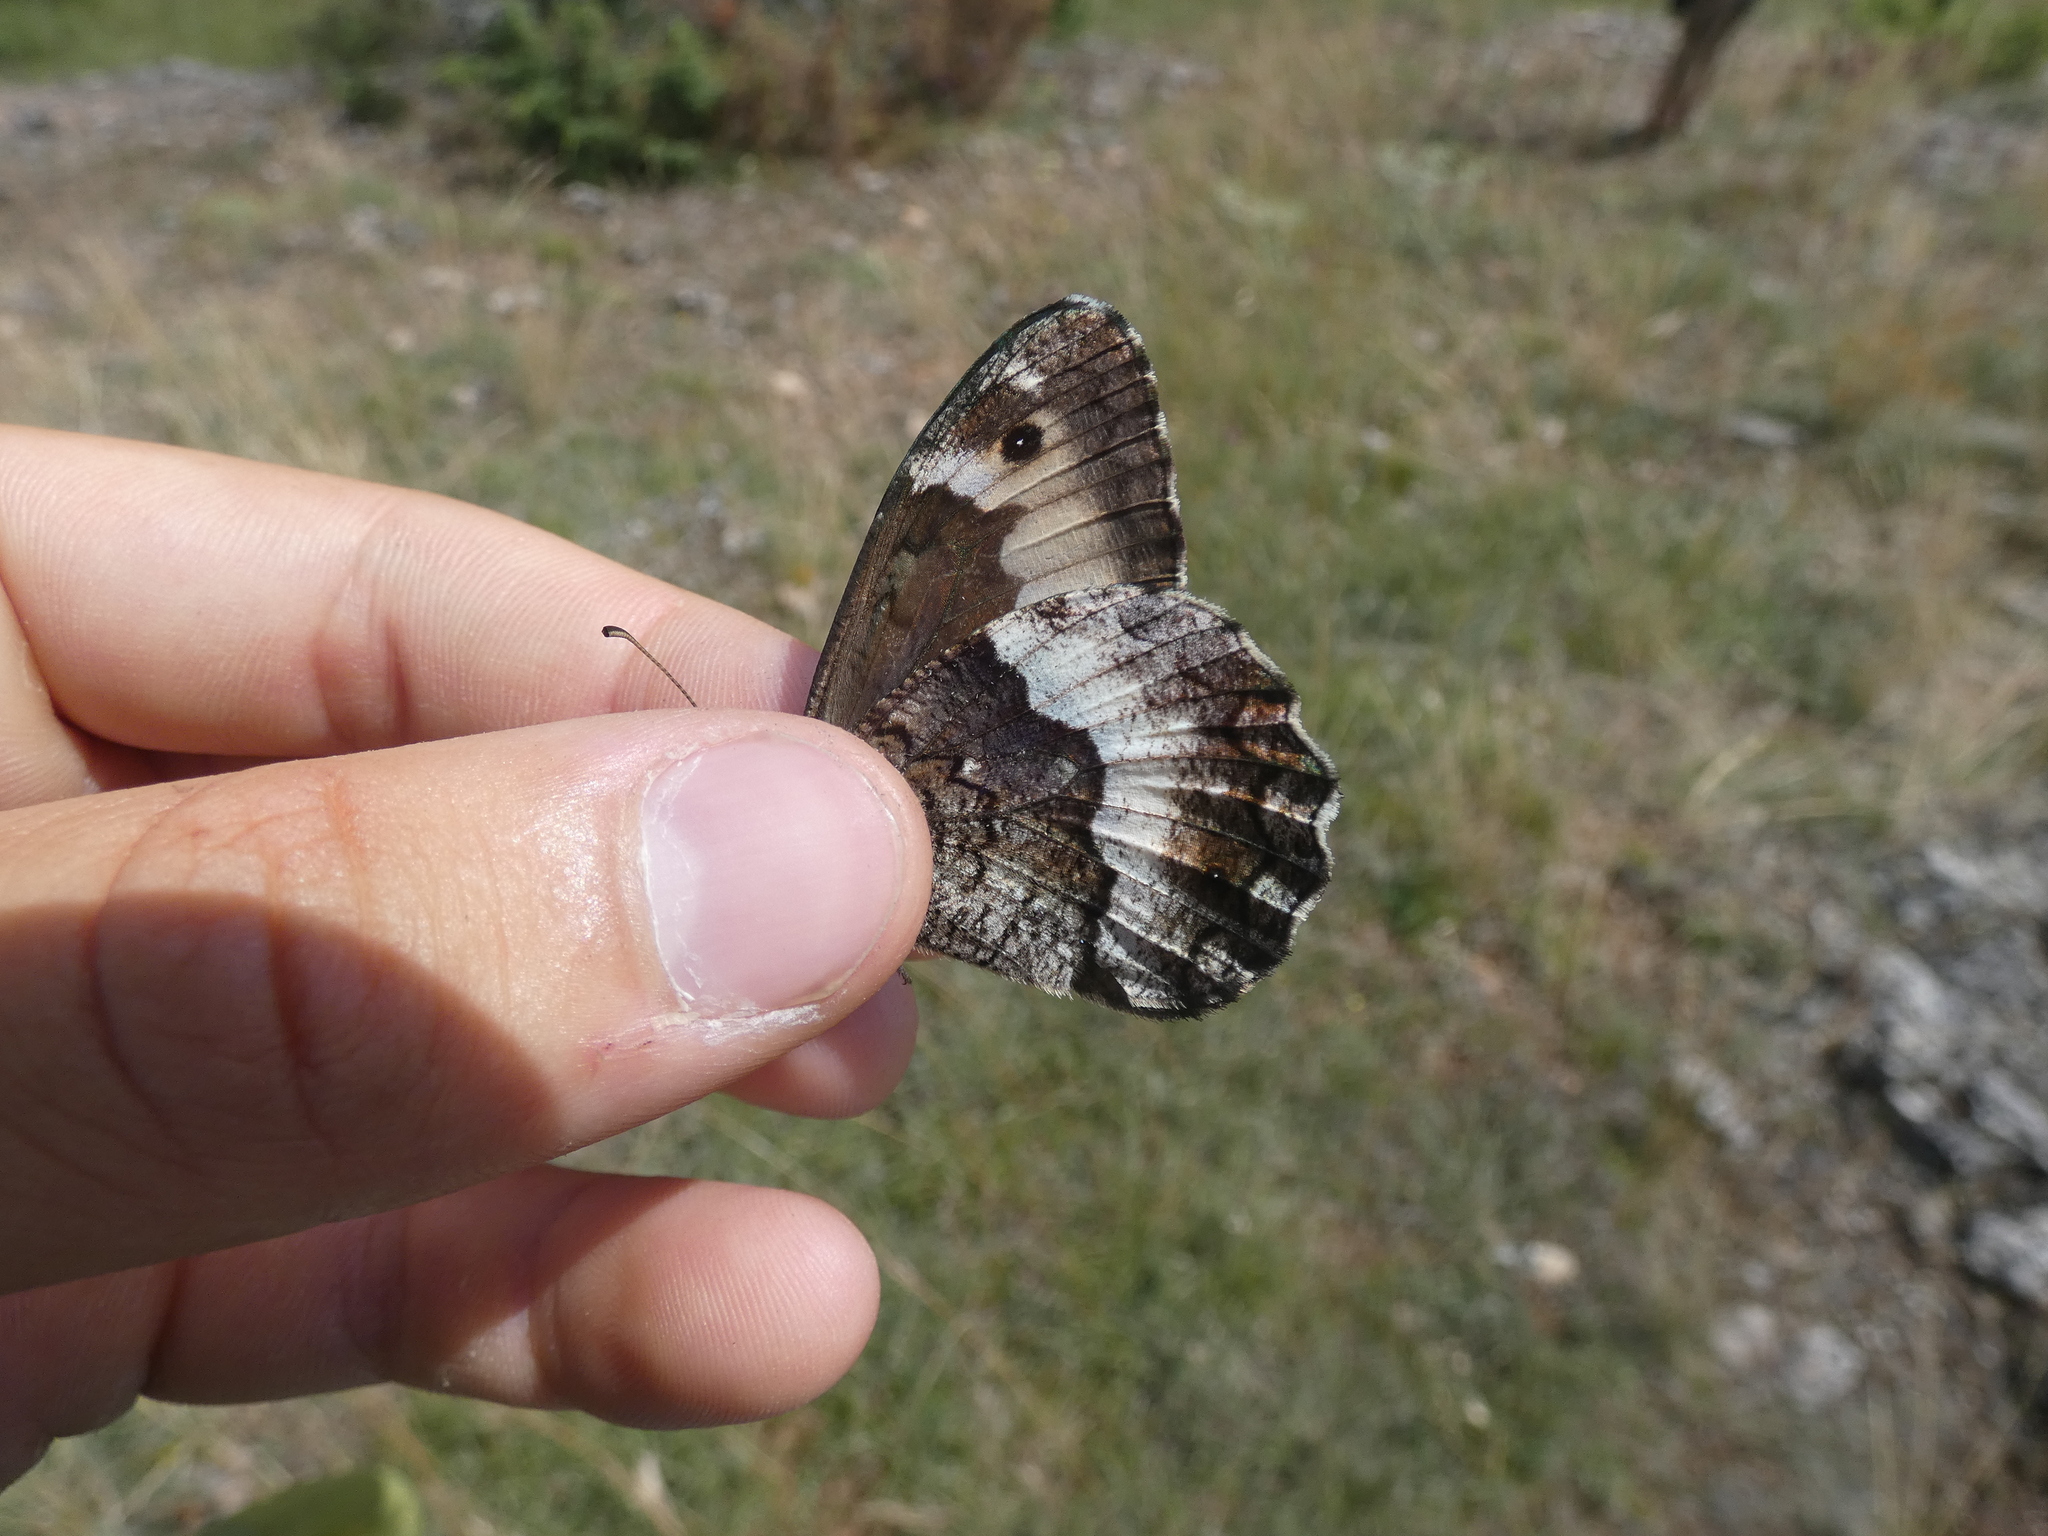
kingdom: Animalia
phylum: Arthropoda
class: Insecta
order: Lepidoptera
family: Nymphalidae
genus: Hipparchia
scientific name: Hipparchia fagi
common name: Woodland grayling
